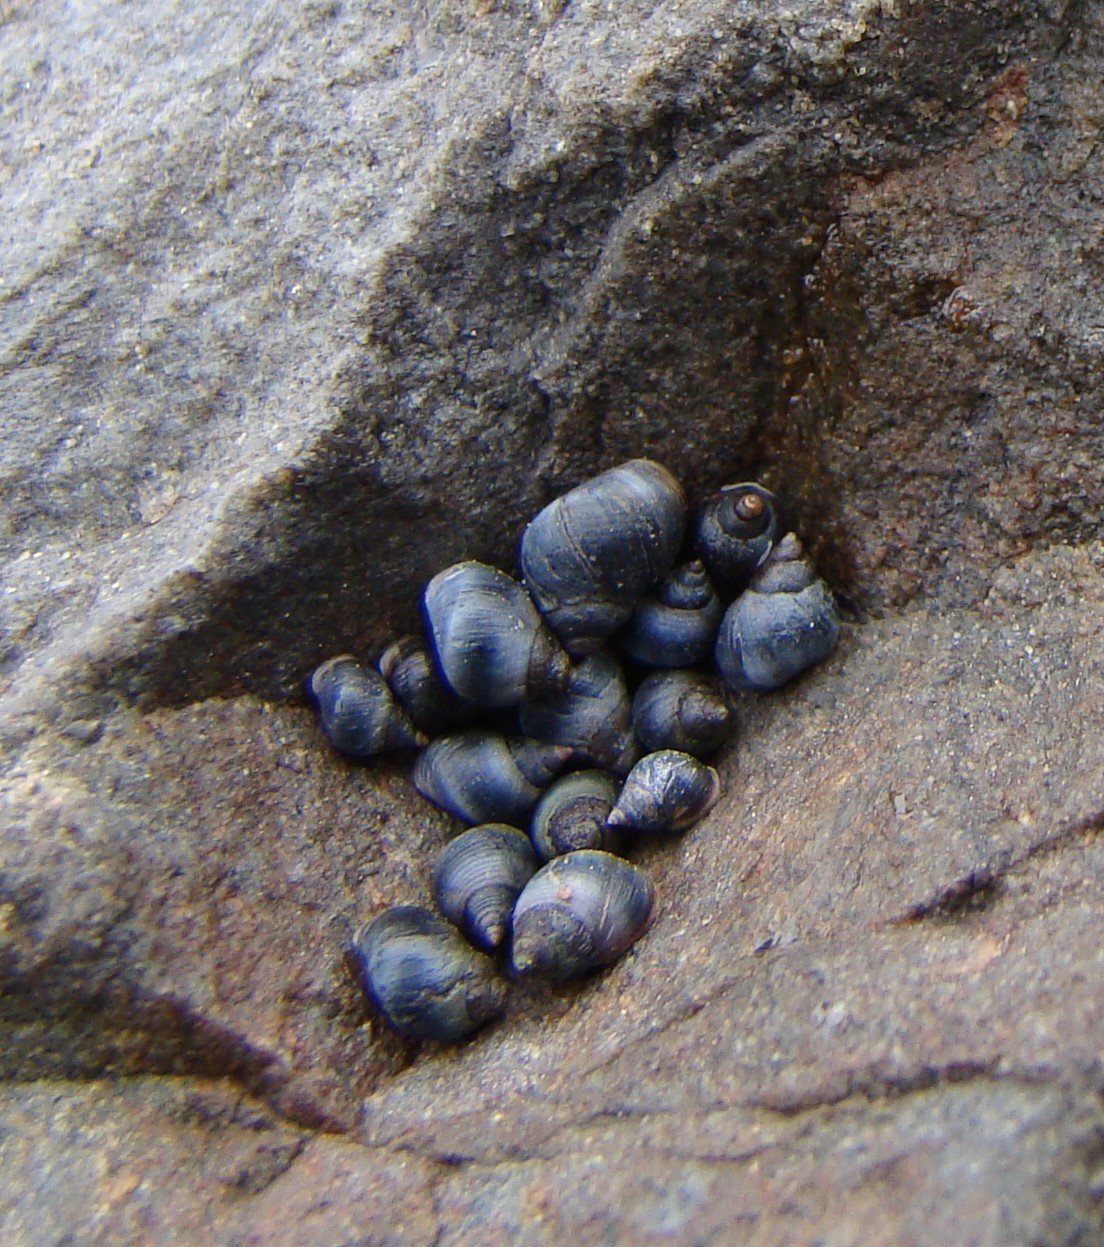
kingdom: Animalia
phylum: Mollusca
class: Gastropoda
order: Littorinimorpha
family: Littorinidae
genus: Austrolittorina
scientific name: Austrolittorina antipodum
